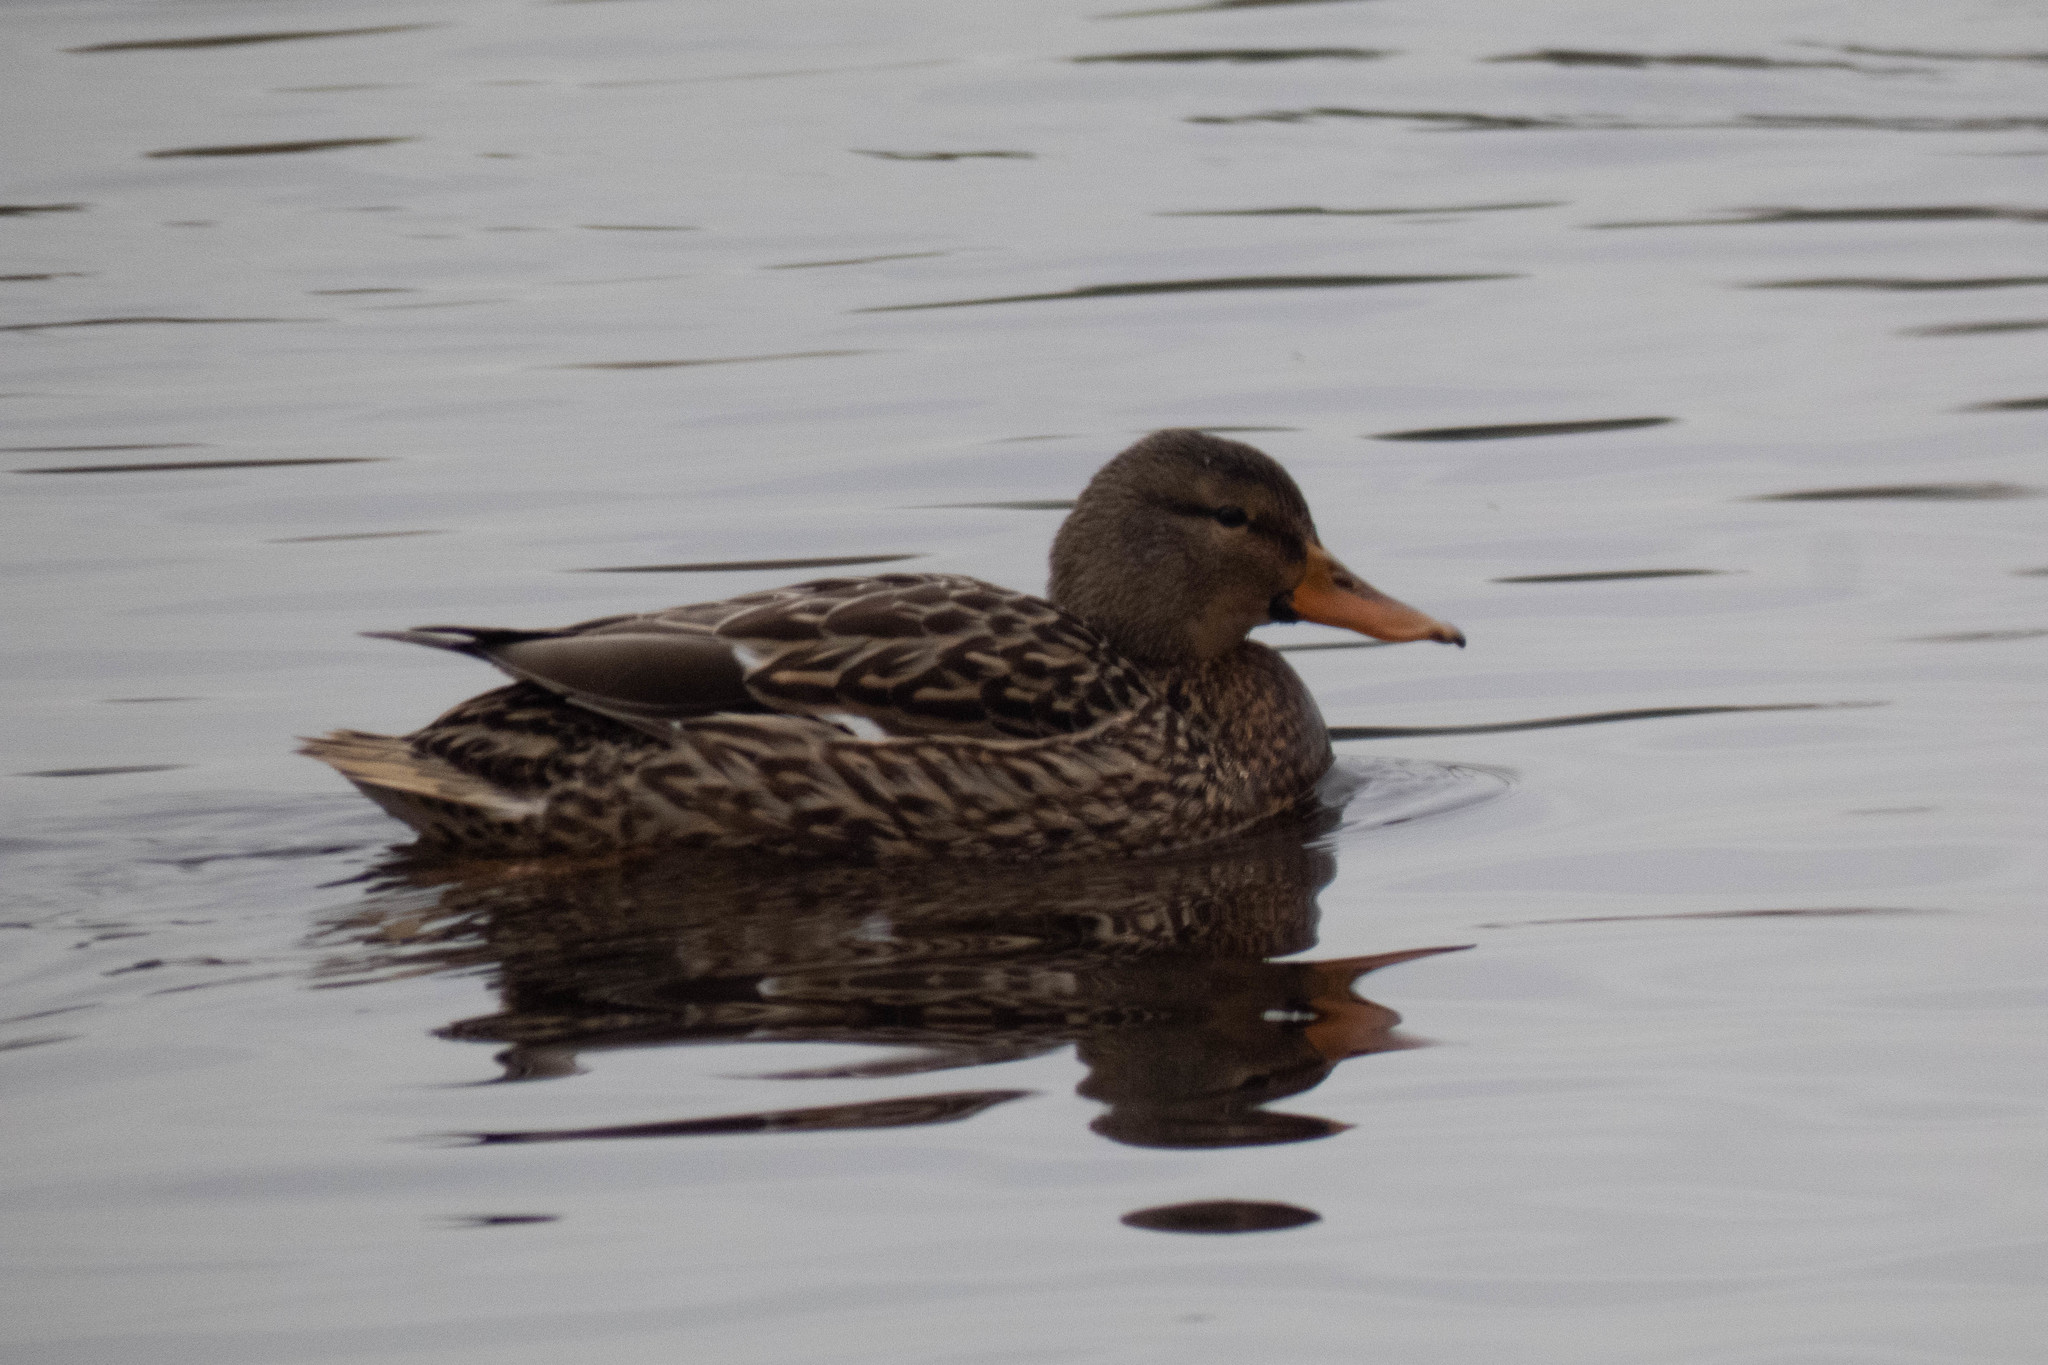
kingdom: Animalia
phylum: Chordata
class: Aves
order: Anseriformes
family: Anatidae
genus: Anas
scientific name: Anas platyrhynchos
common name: Mallard
